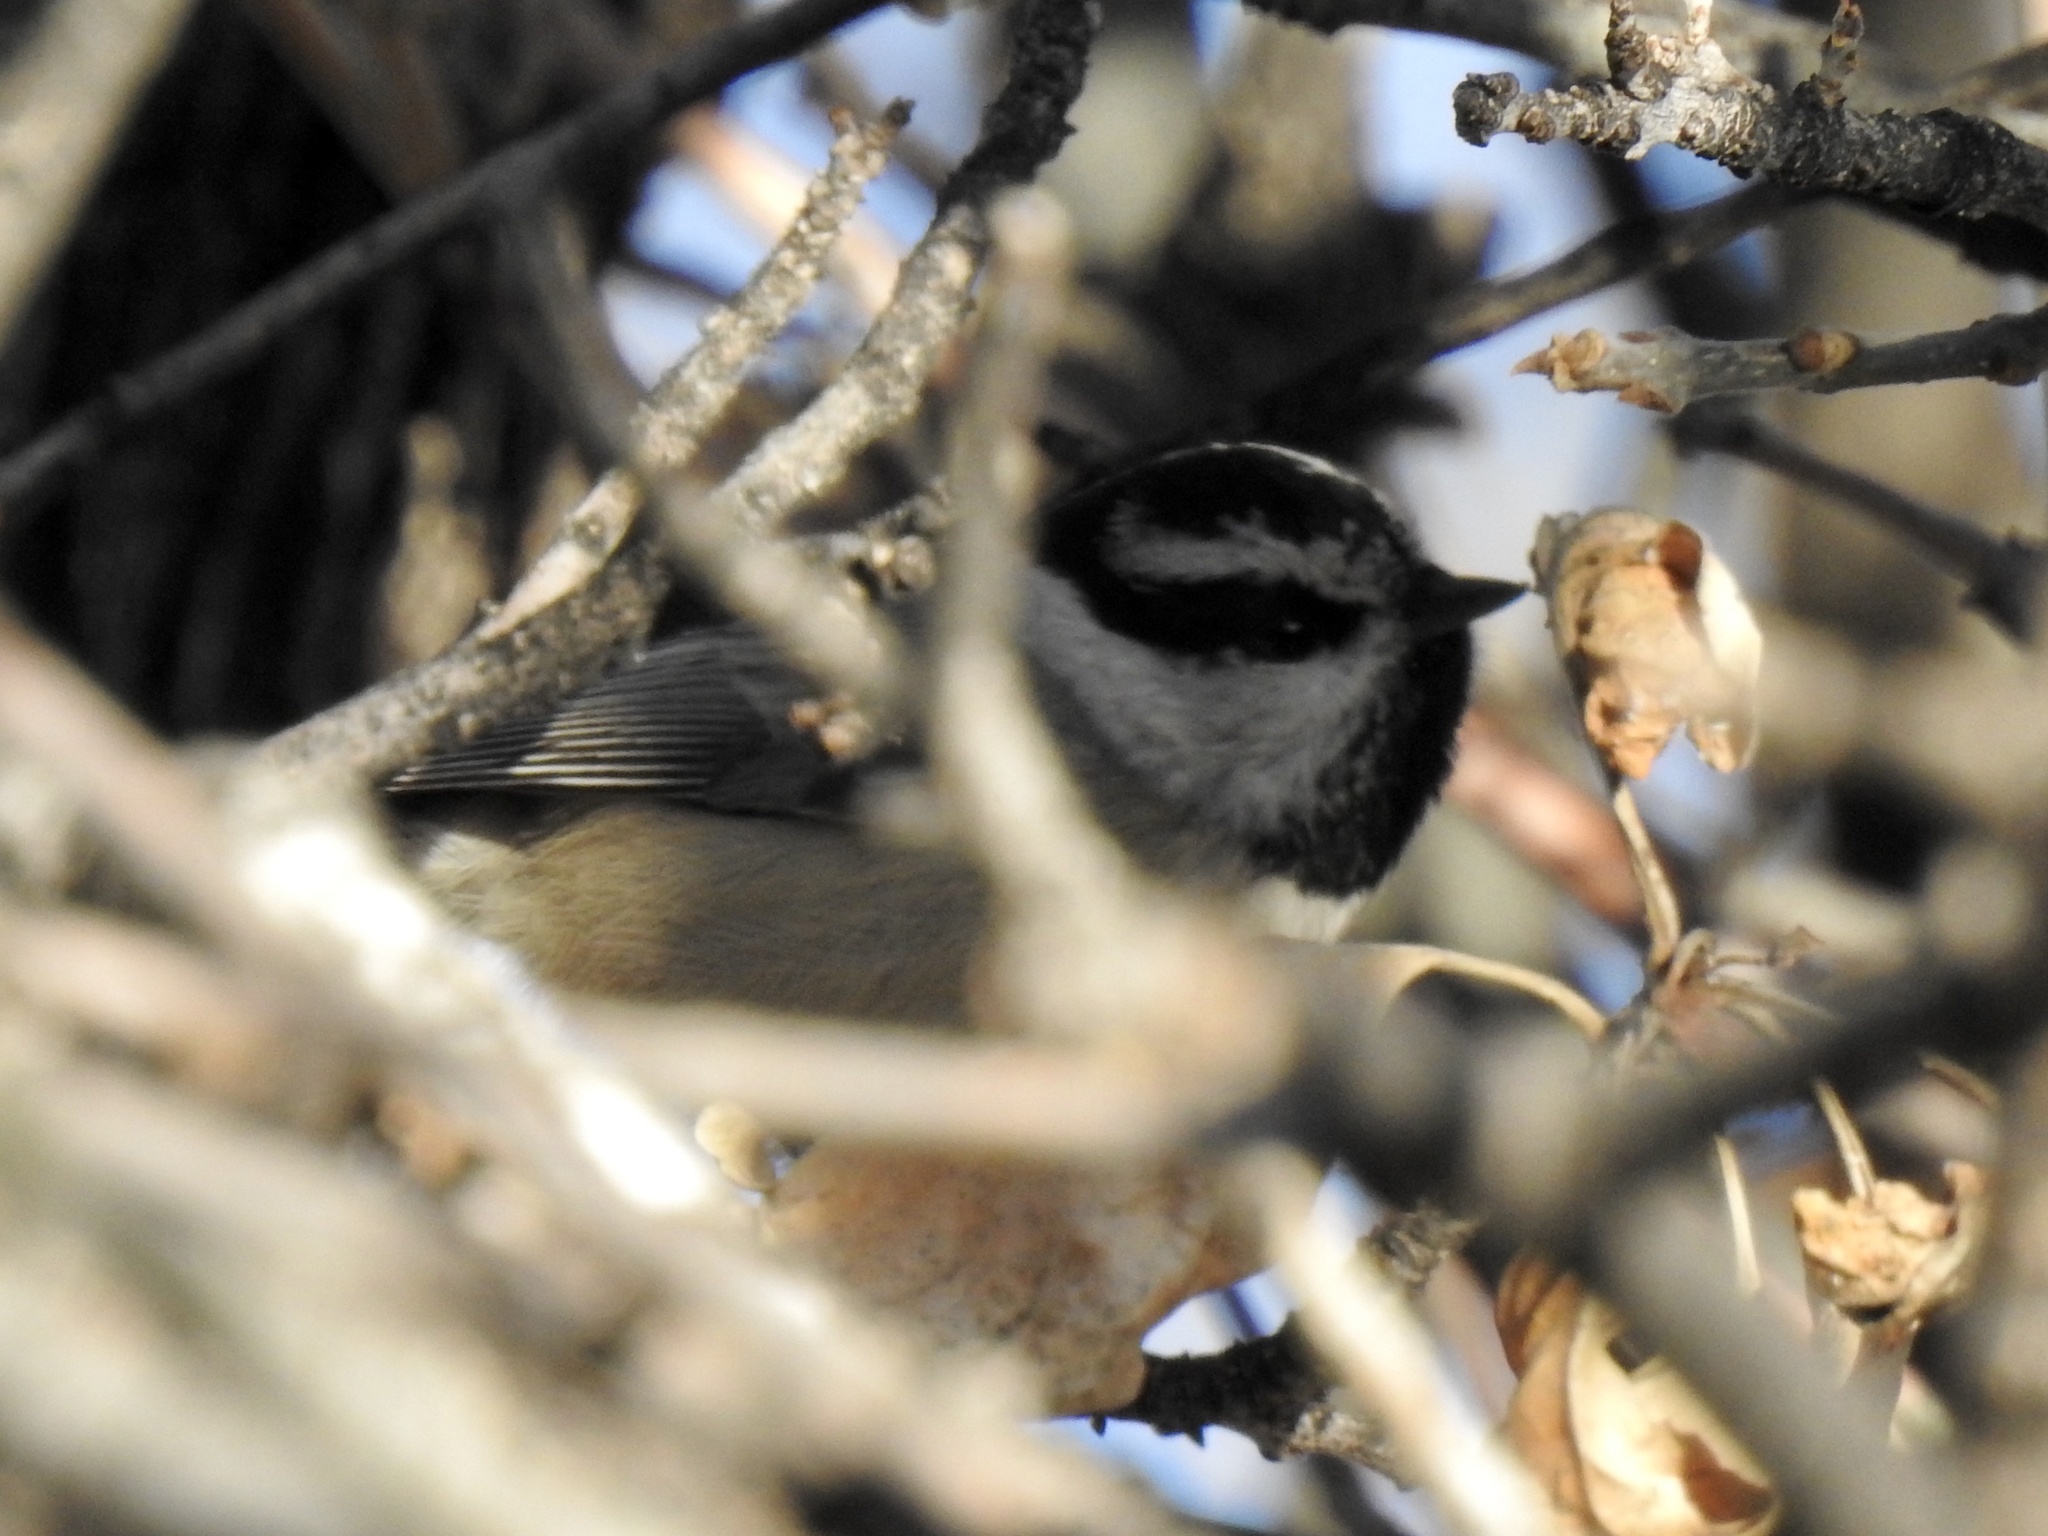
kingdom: Animalia
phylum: Chordata
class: Aves
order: Passeriformes
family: Paridae
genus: Poecile
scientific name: Poecile gambeli
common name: Mountain chickadee
